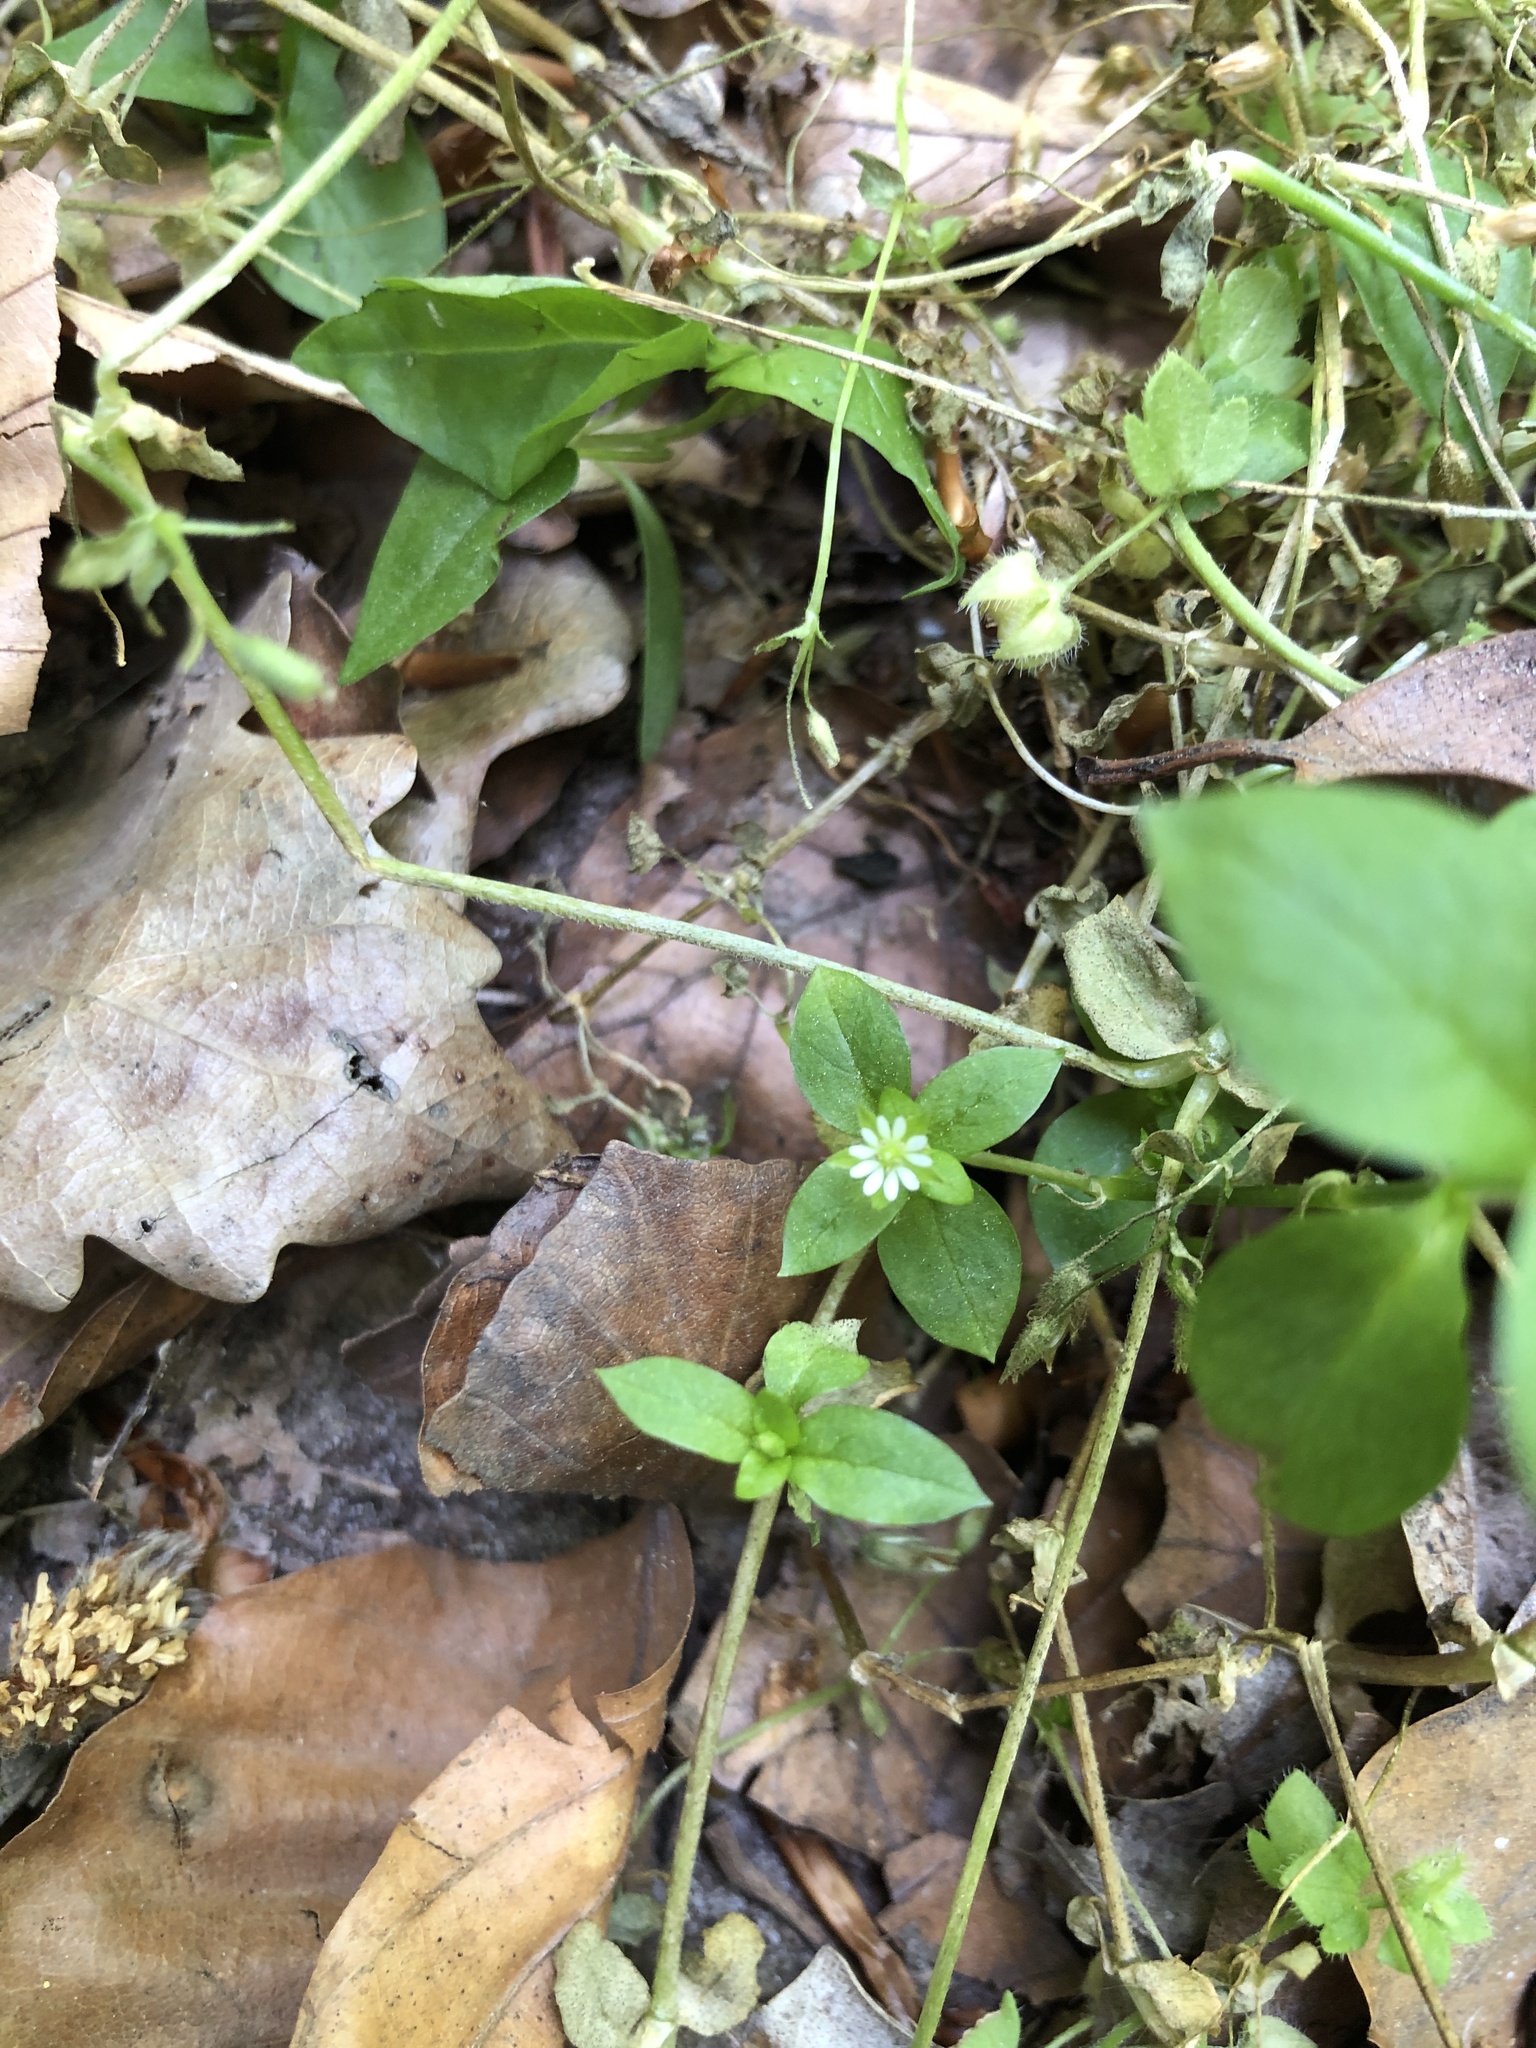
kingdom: Plantae
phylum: Tracheophyta
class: Magnoliopsida
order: Caryophyllales
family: Caryophyllaceae
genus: Stellaria
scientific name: Stellaria media
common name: Common chickweed
